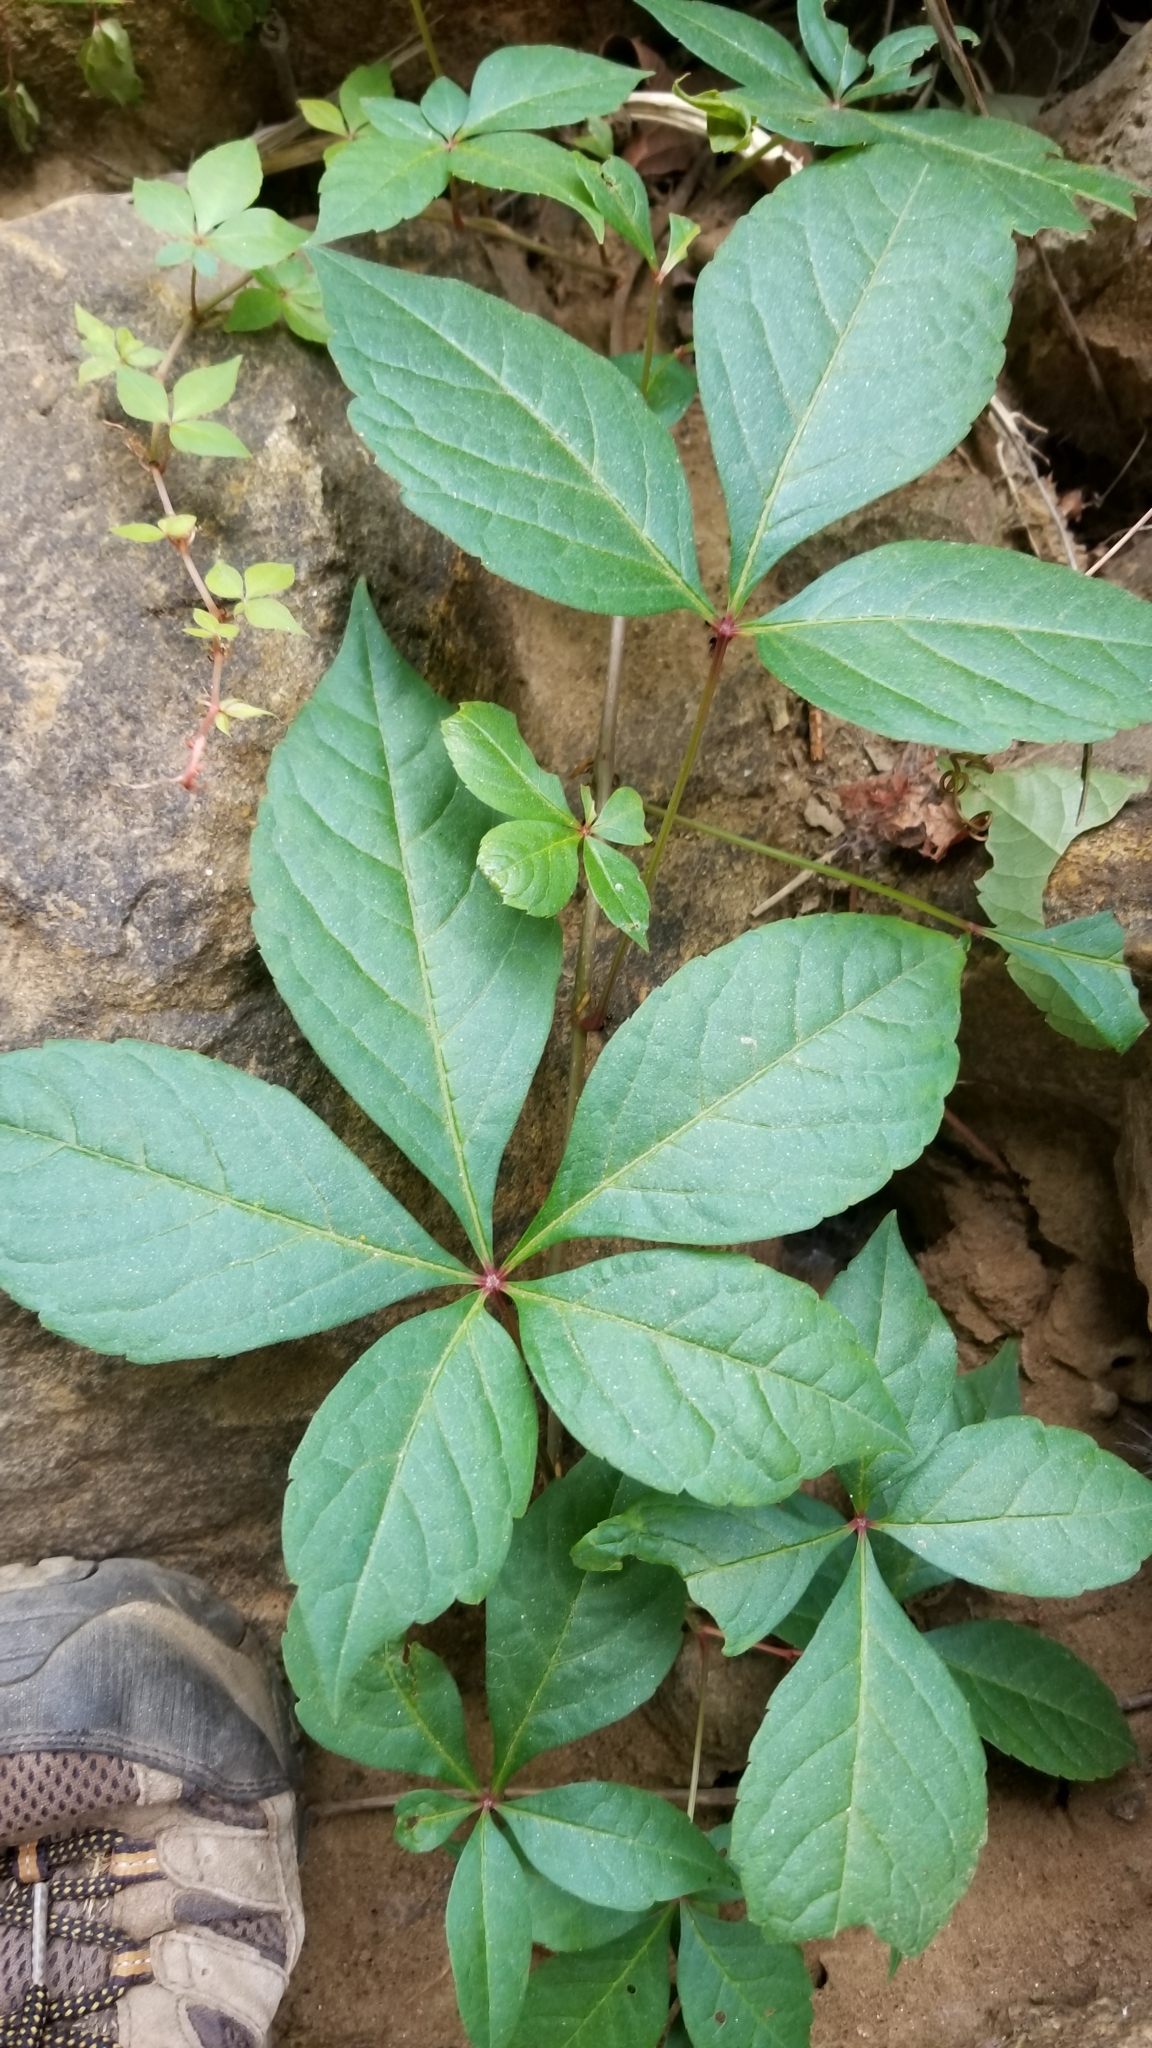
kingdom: Plantae
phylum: Tracheophyta
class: Magnoliopsida
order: Vitales
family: Vitaceae
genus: Parthenocissus
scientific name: Parthenocissus quinquefolia
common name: Virginia-creeper
